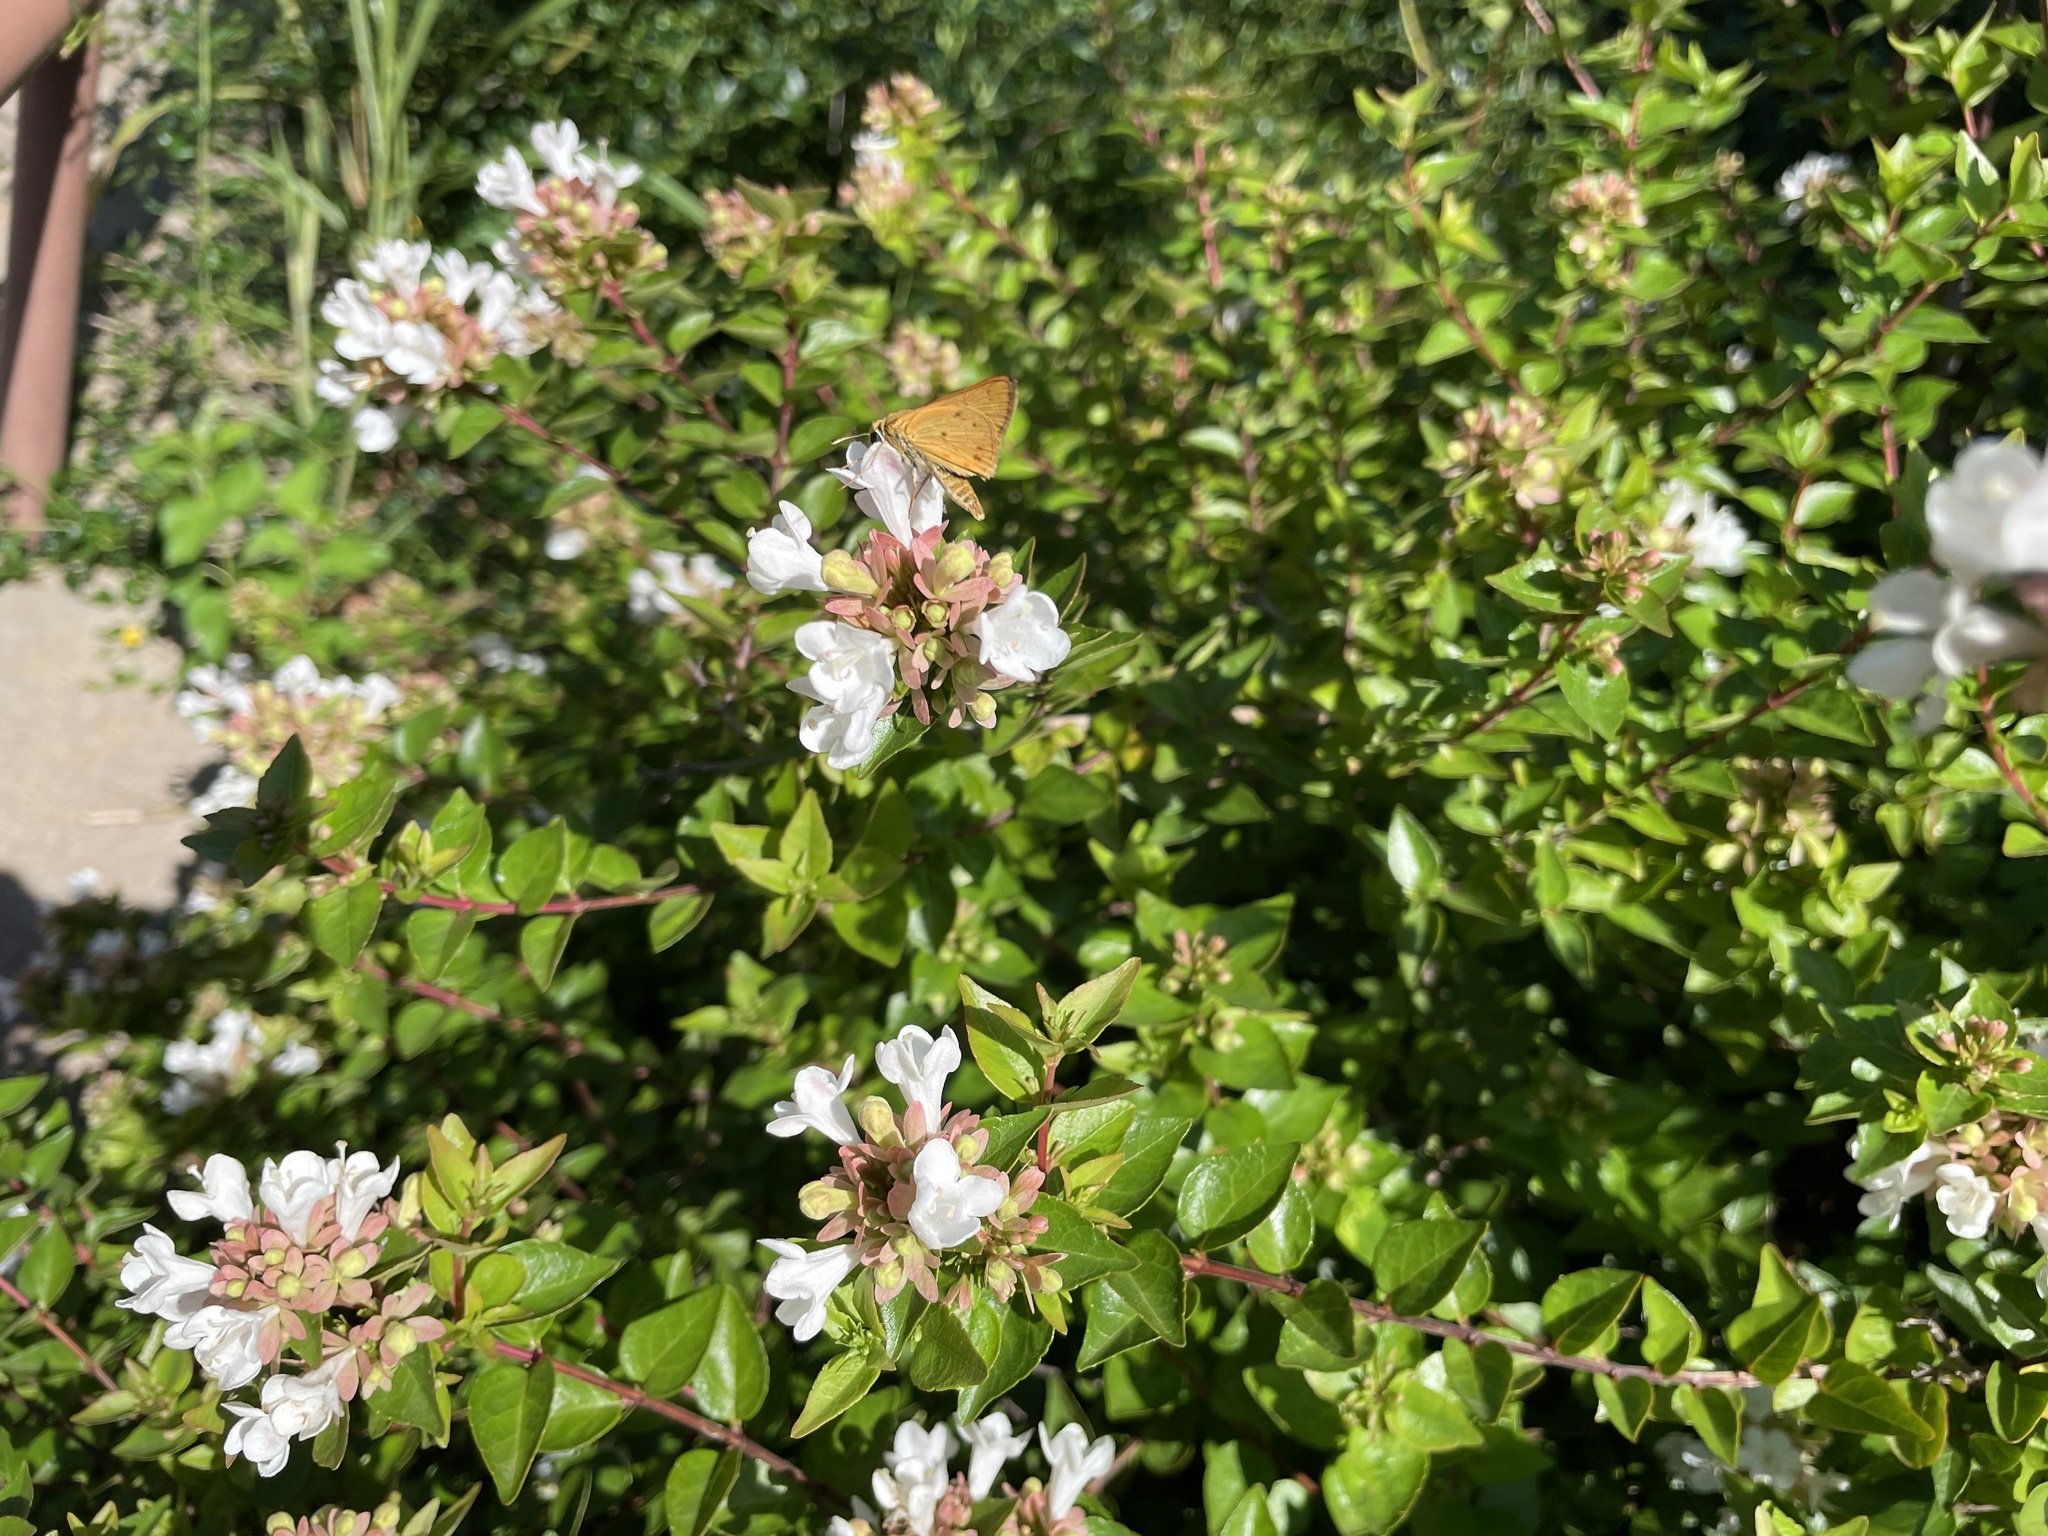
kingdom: Animalia
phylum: Arthropoda
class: Insecta
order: Lepidoptera
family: Hesperiidae
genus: Hylephila
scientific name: Hylephila phyleus
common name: Fiery skipper
